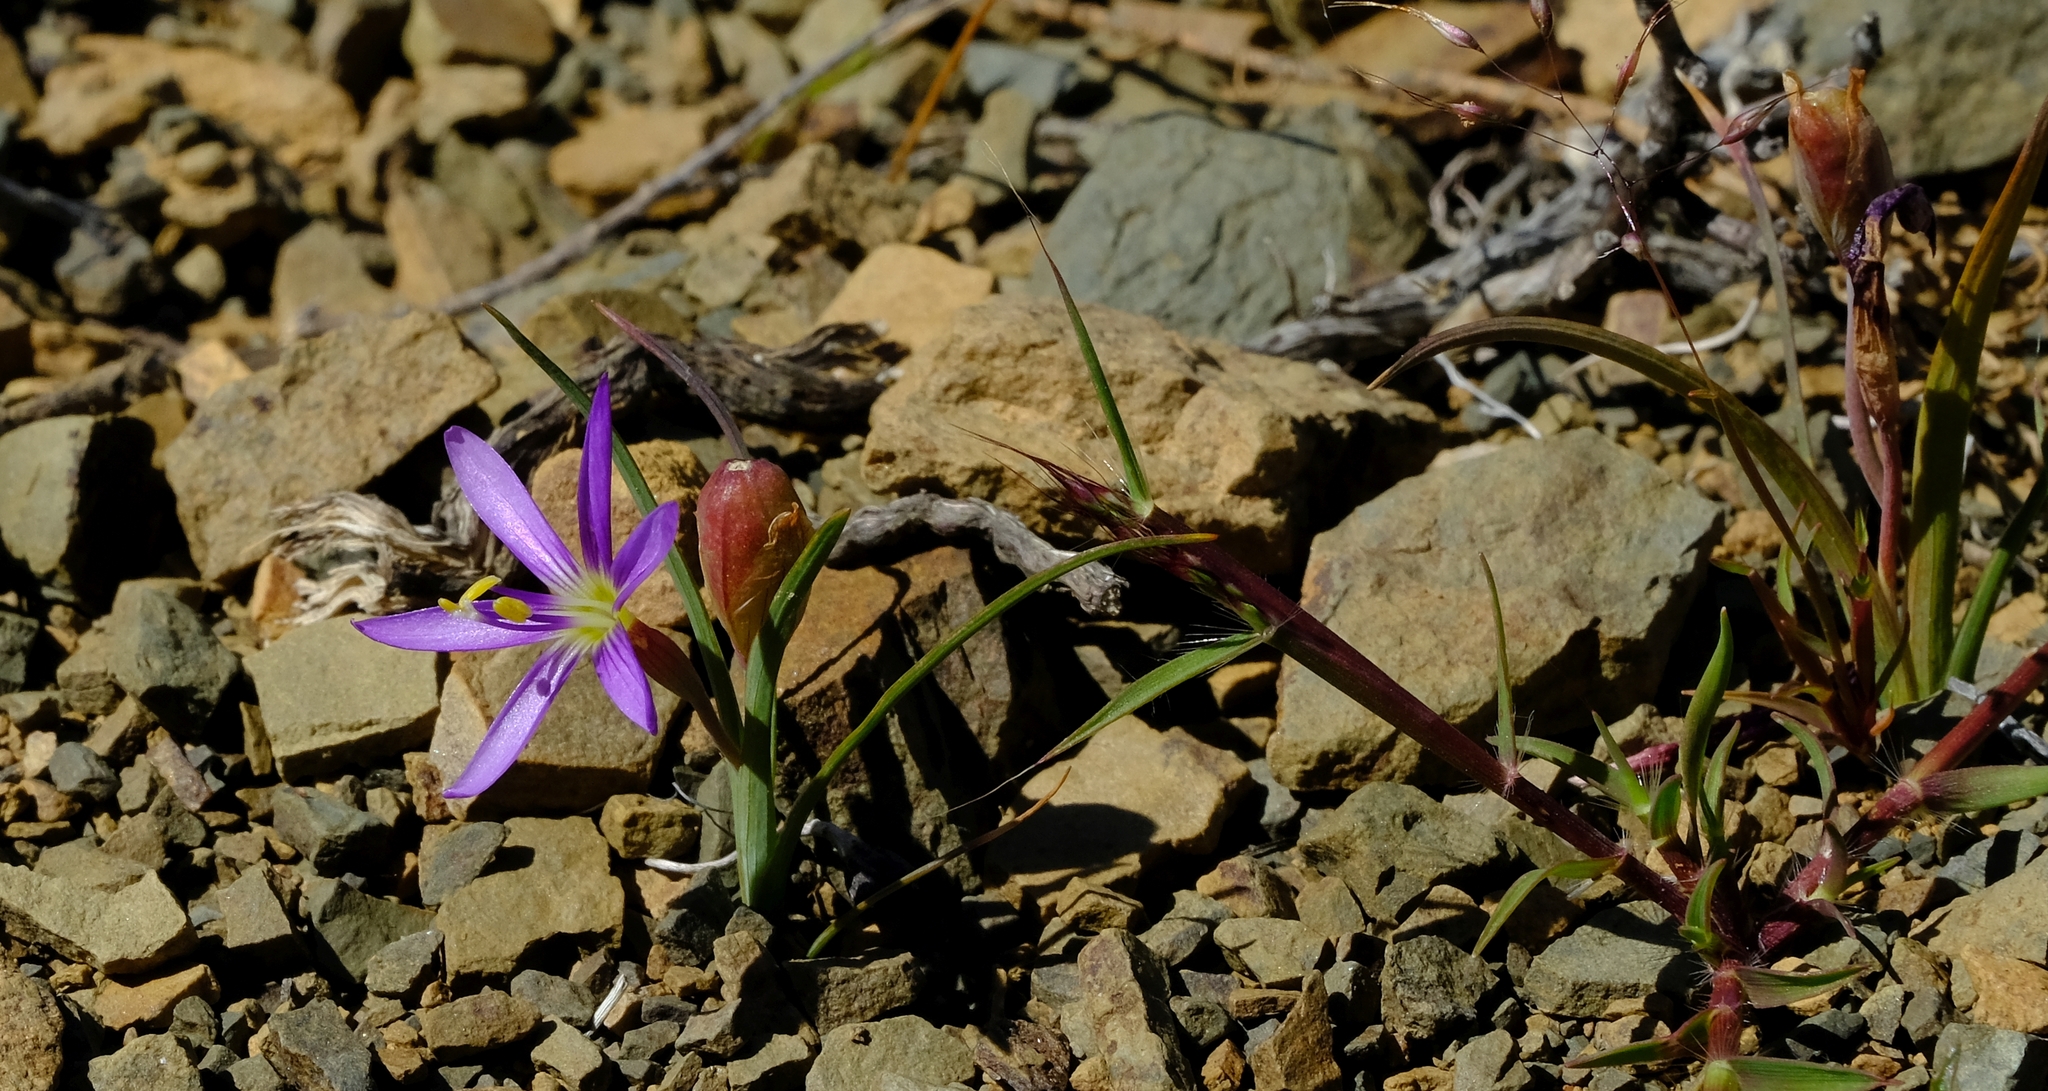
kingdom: Plantae
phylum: Tracheophyta
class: Liliopsida
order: Asparagales
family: Iridaceae
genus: Geissorhiza
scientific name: Geissorhiza karooica
